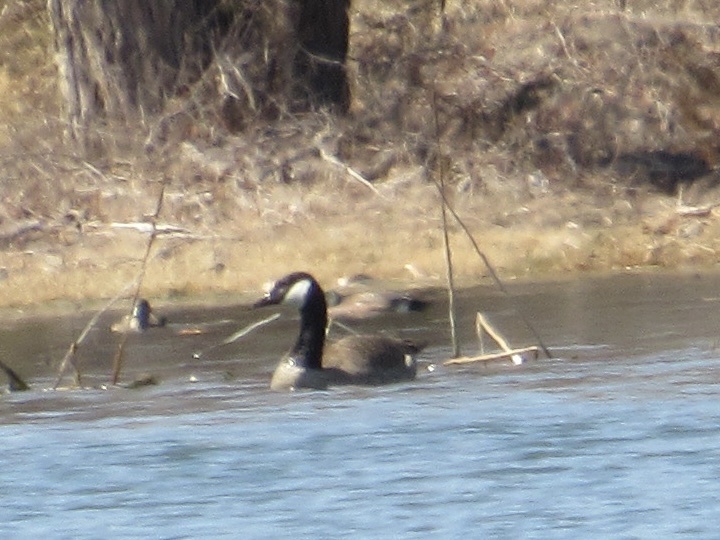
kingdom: Animalia
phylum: Chordata
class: Aves
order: Anseriformes
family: Anatidae
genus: Branta
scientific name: Branta canadensis
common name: Canada goose
